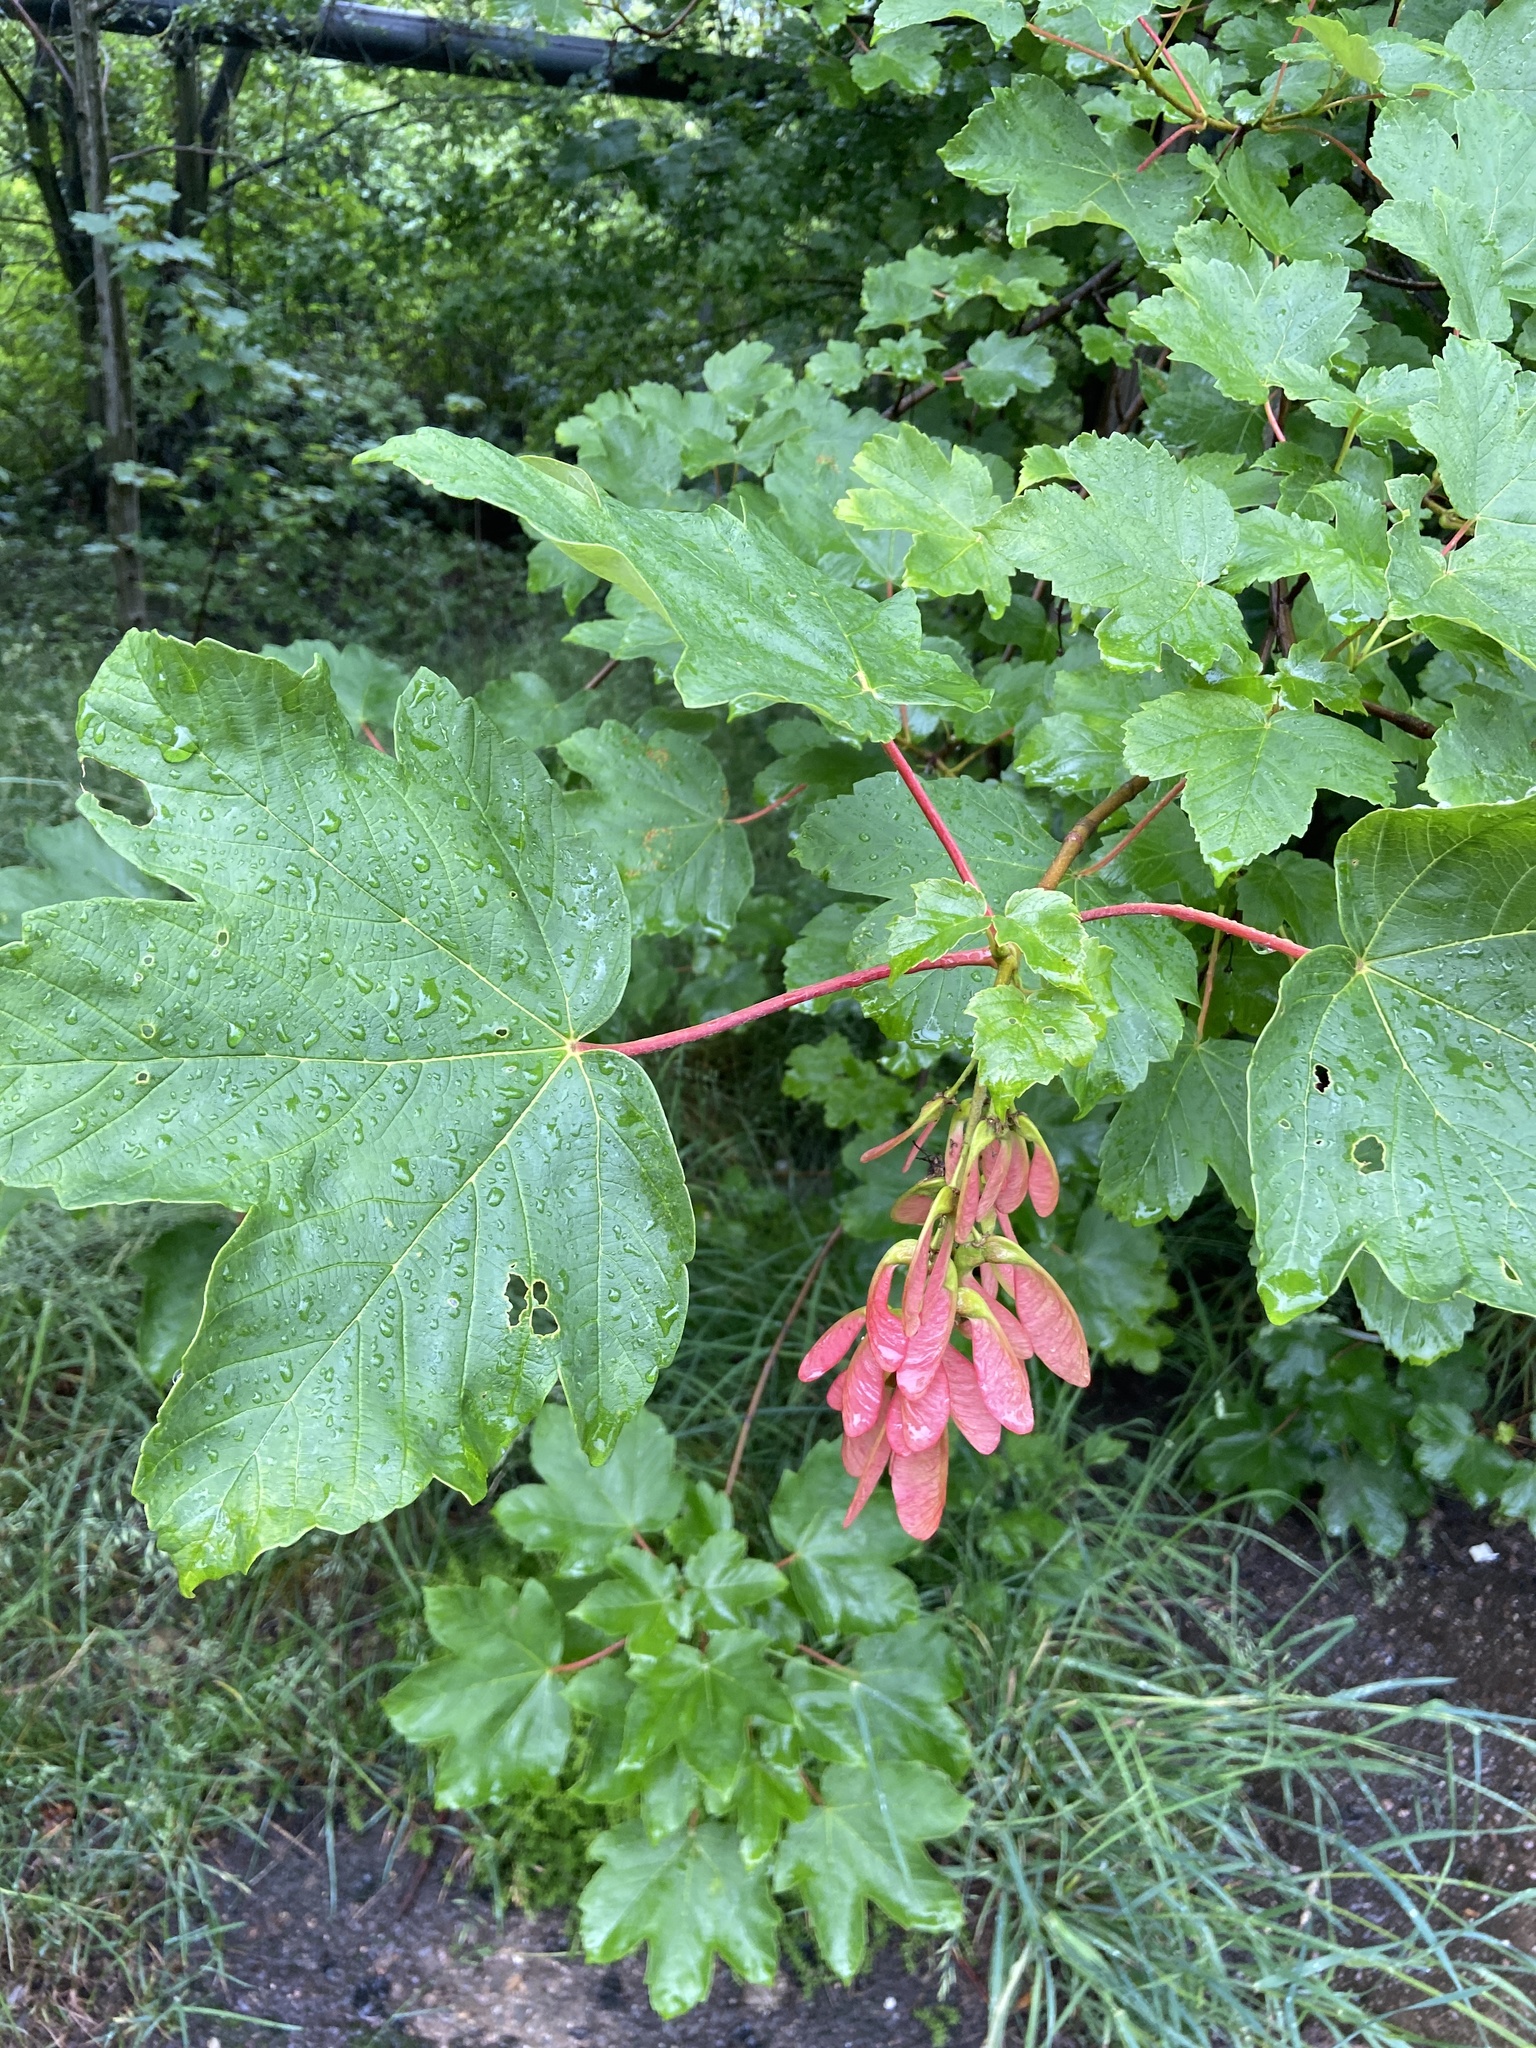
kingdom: Plantae
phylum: Tracheophyta
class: Magnoliopsida
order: Sapindales
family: Sapindaceae
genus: Acer
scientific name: Acer pseudoplatanus
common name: Sycamore
